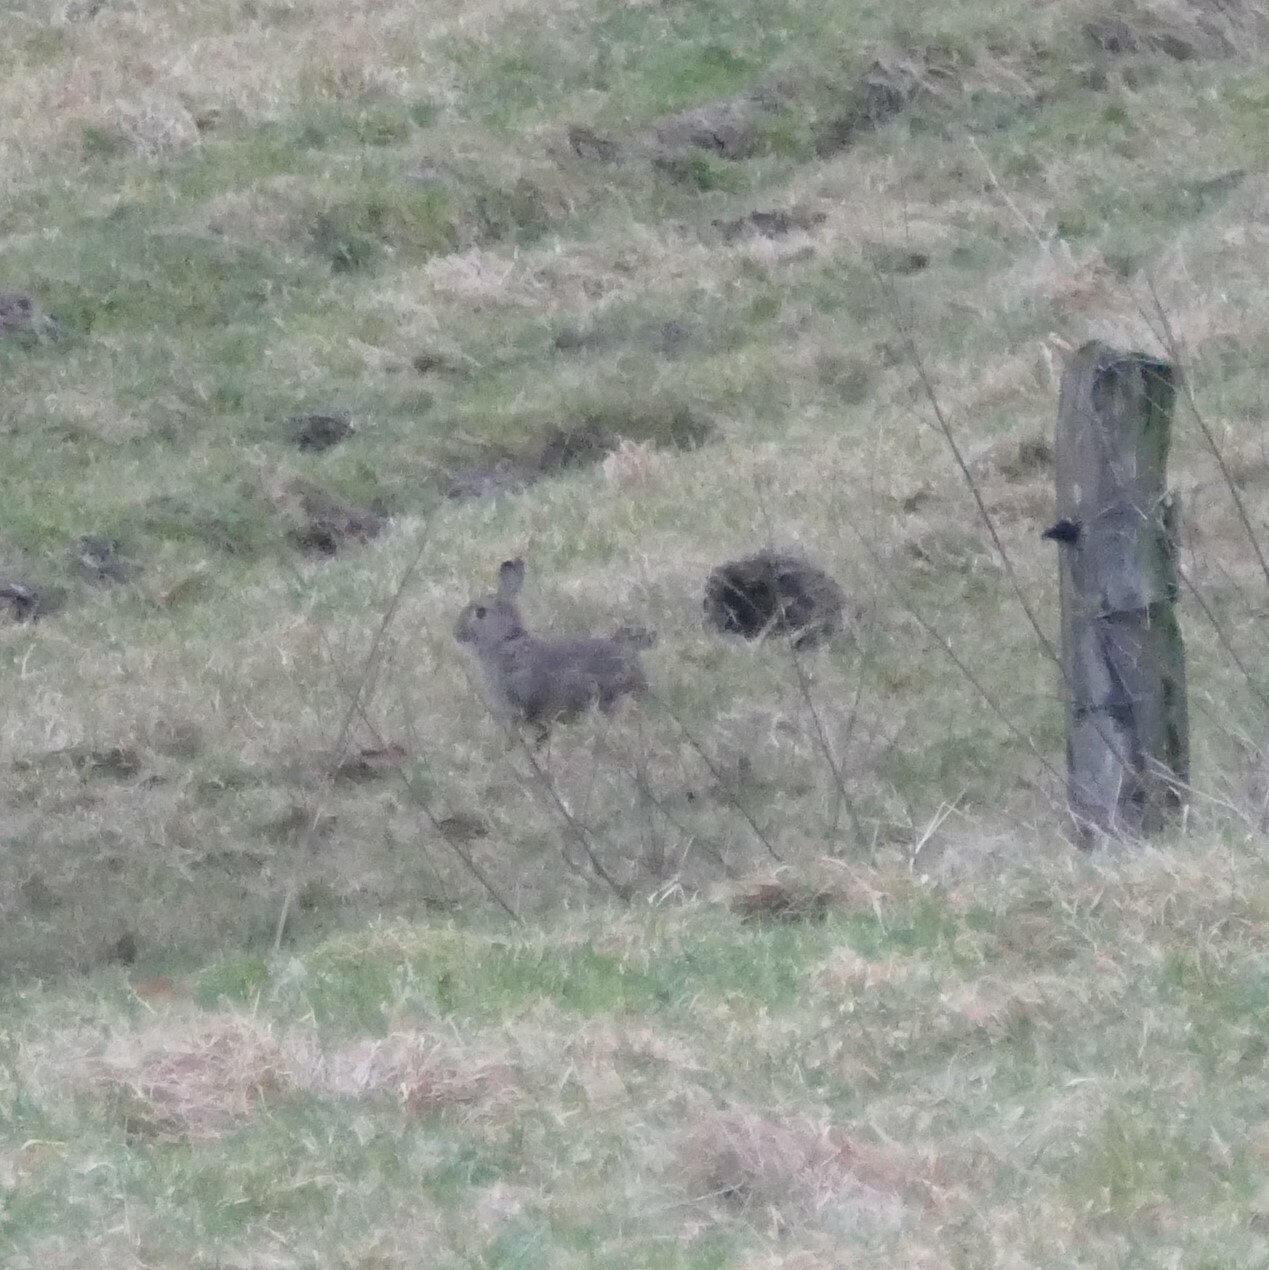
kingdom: Animalia
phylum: Chordata
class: Mammalia
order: Lagomorpha
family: Leporidae
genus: Oryctolagus
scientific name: Oryctolagus cuniculus
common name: European rabbit
